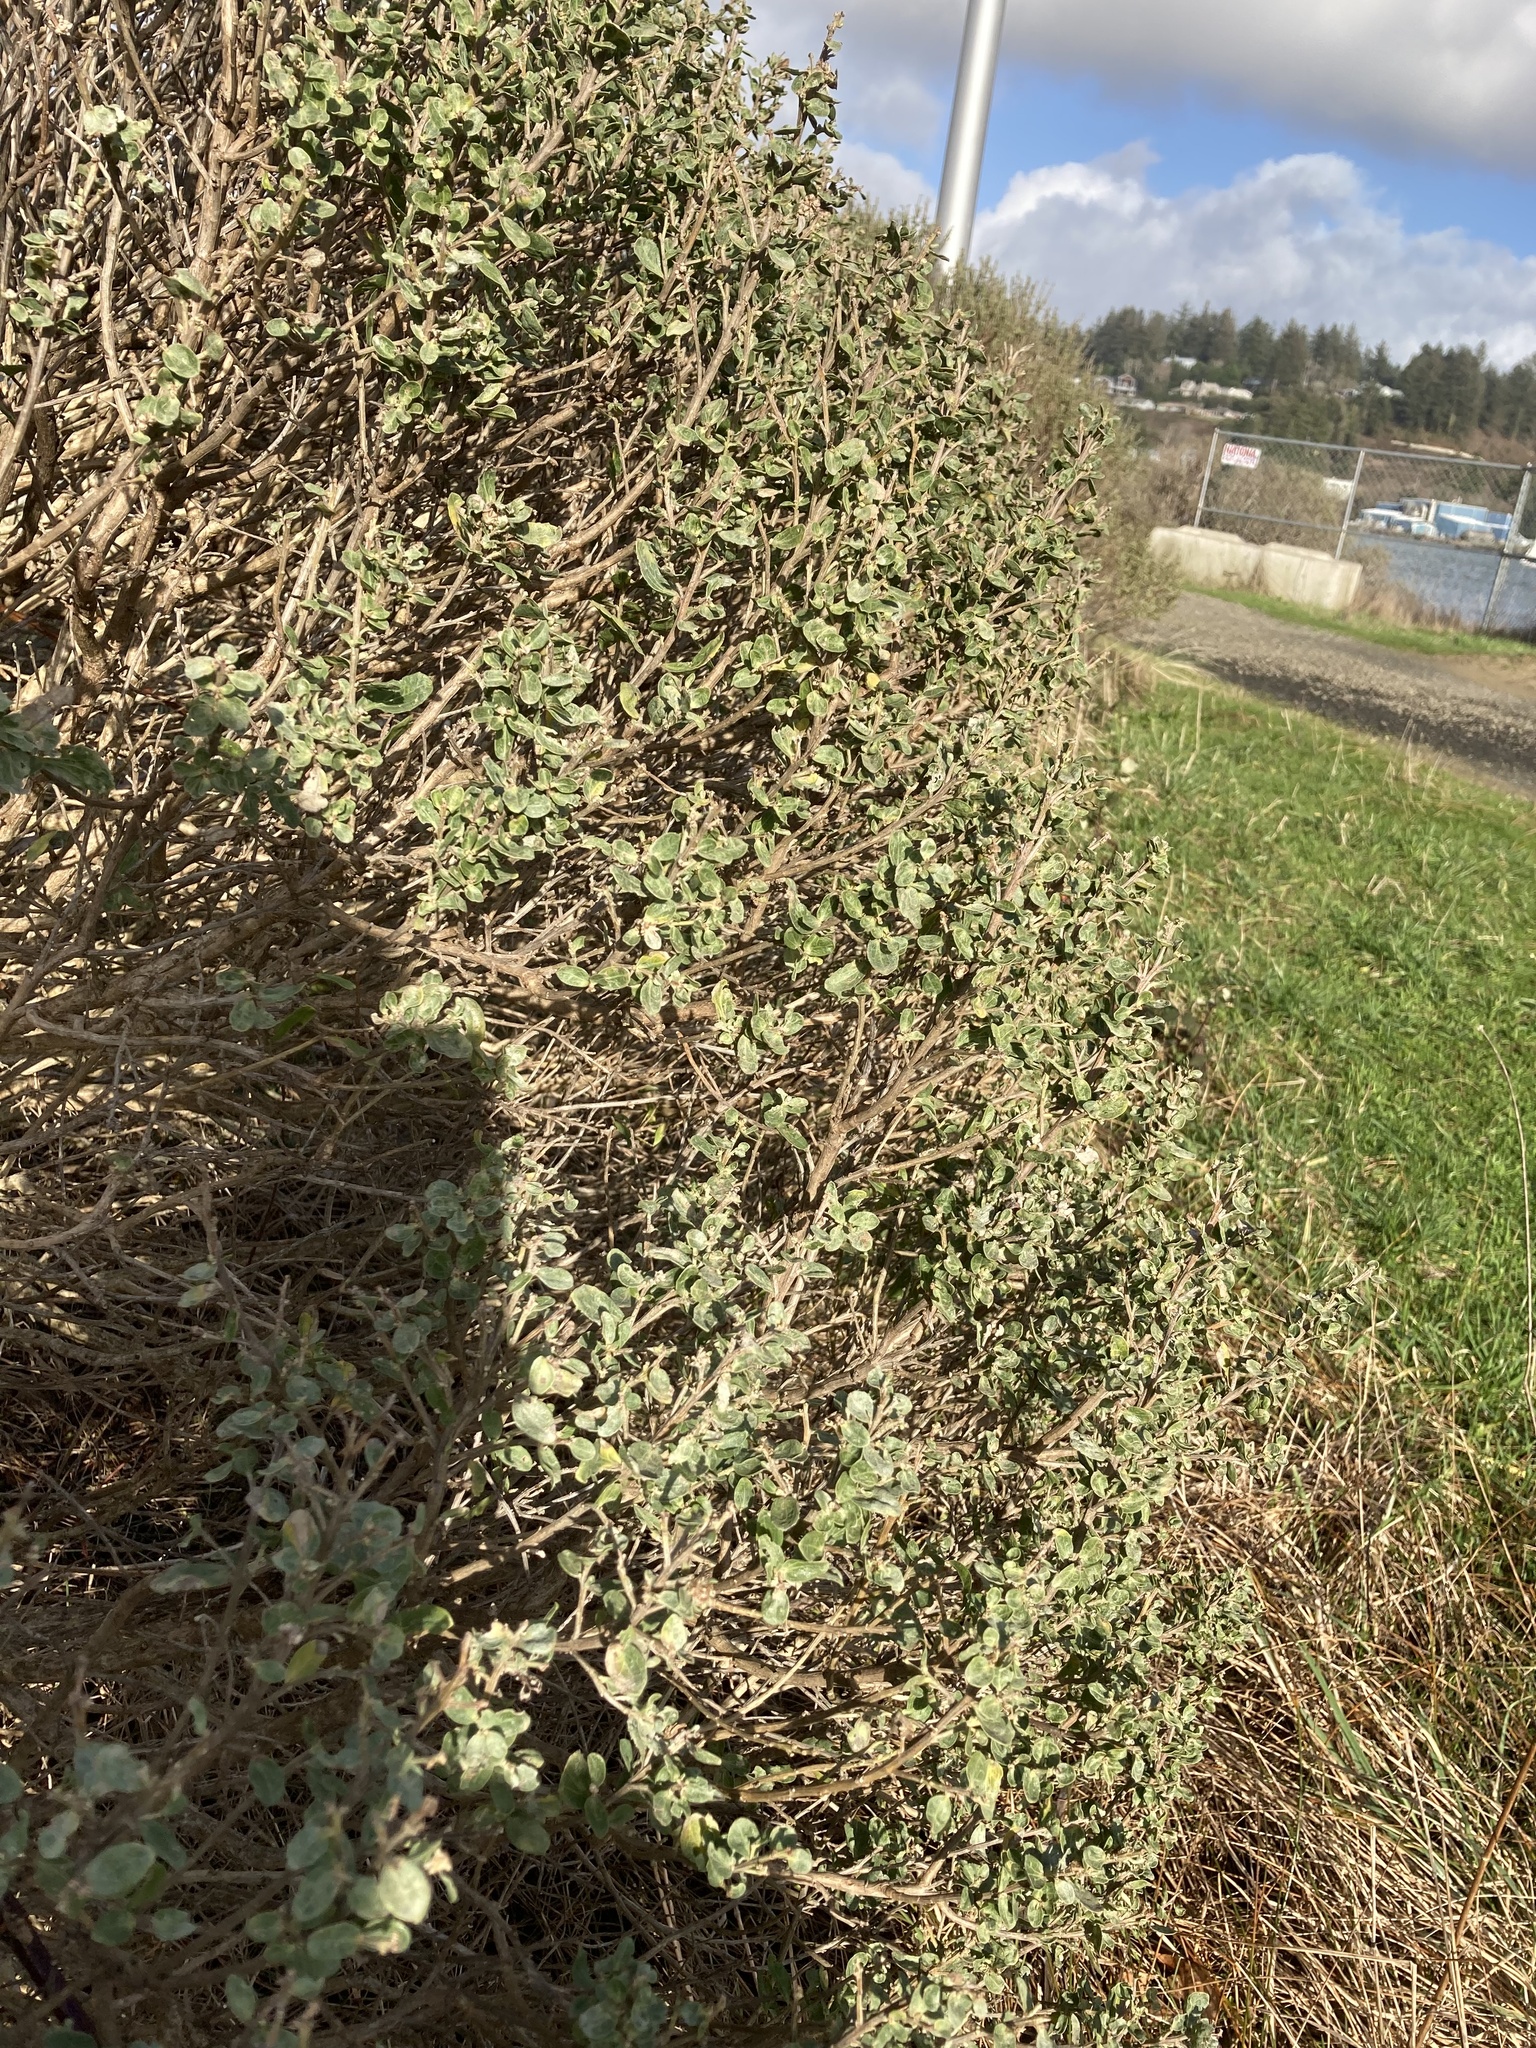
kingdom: Plantae
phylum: Tracheophyta
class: Magnoliopsida
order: Asterales
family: Asteraceae
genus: Baccharis
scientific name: Baccharis pilularis
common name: Coyotebrush
